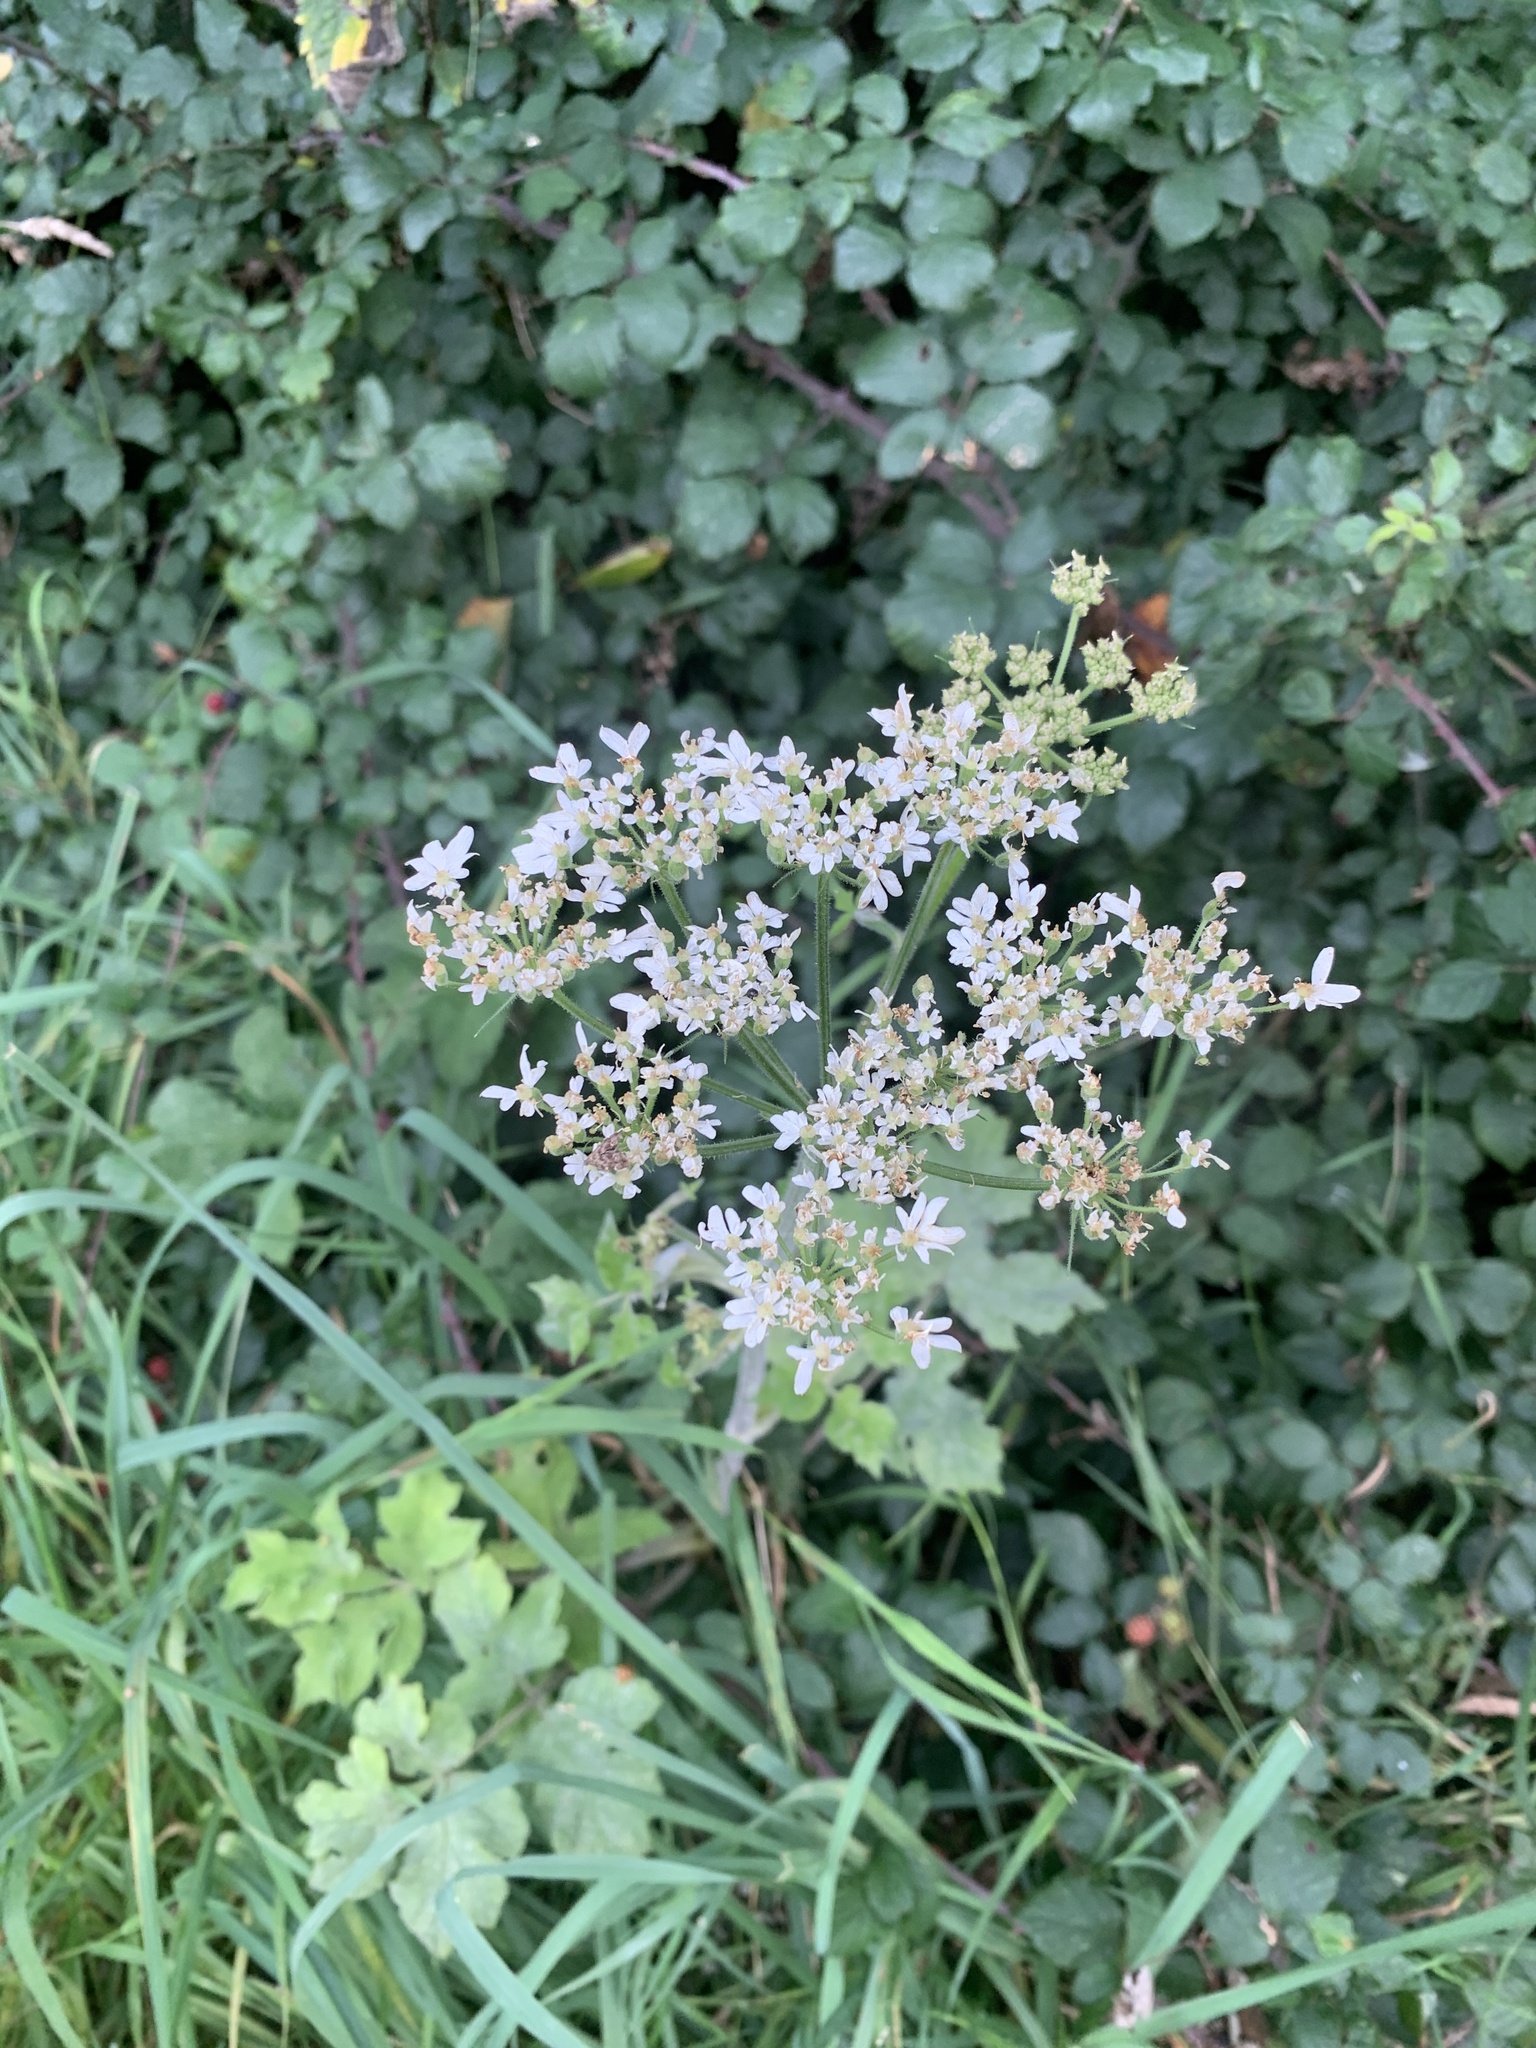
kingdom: Plantae
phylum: Tracheophyta
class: Magnoliopsida
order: Apiales
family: Apiaceae
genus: Heracleum
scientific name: Heracleum sphondylium
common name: Hogweed
